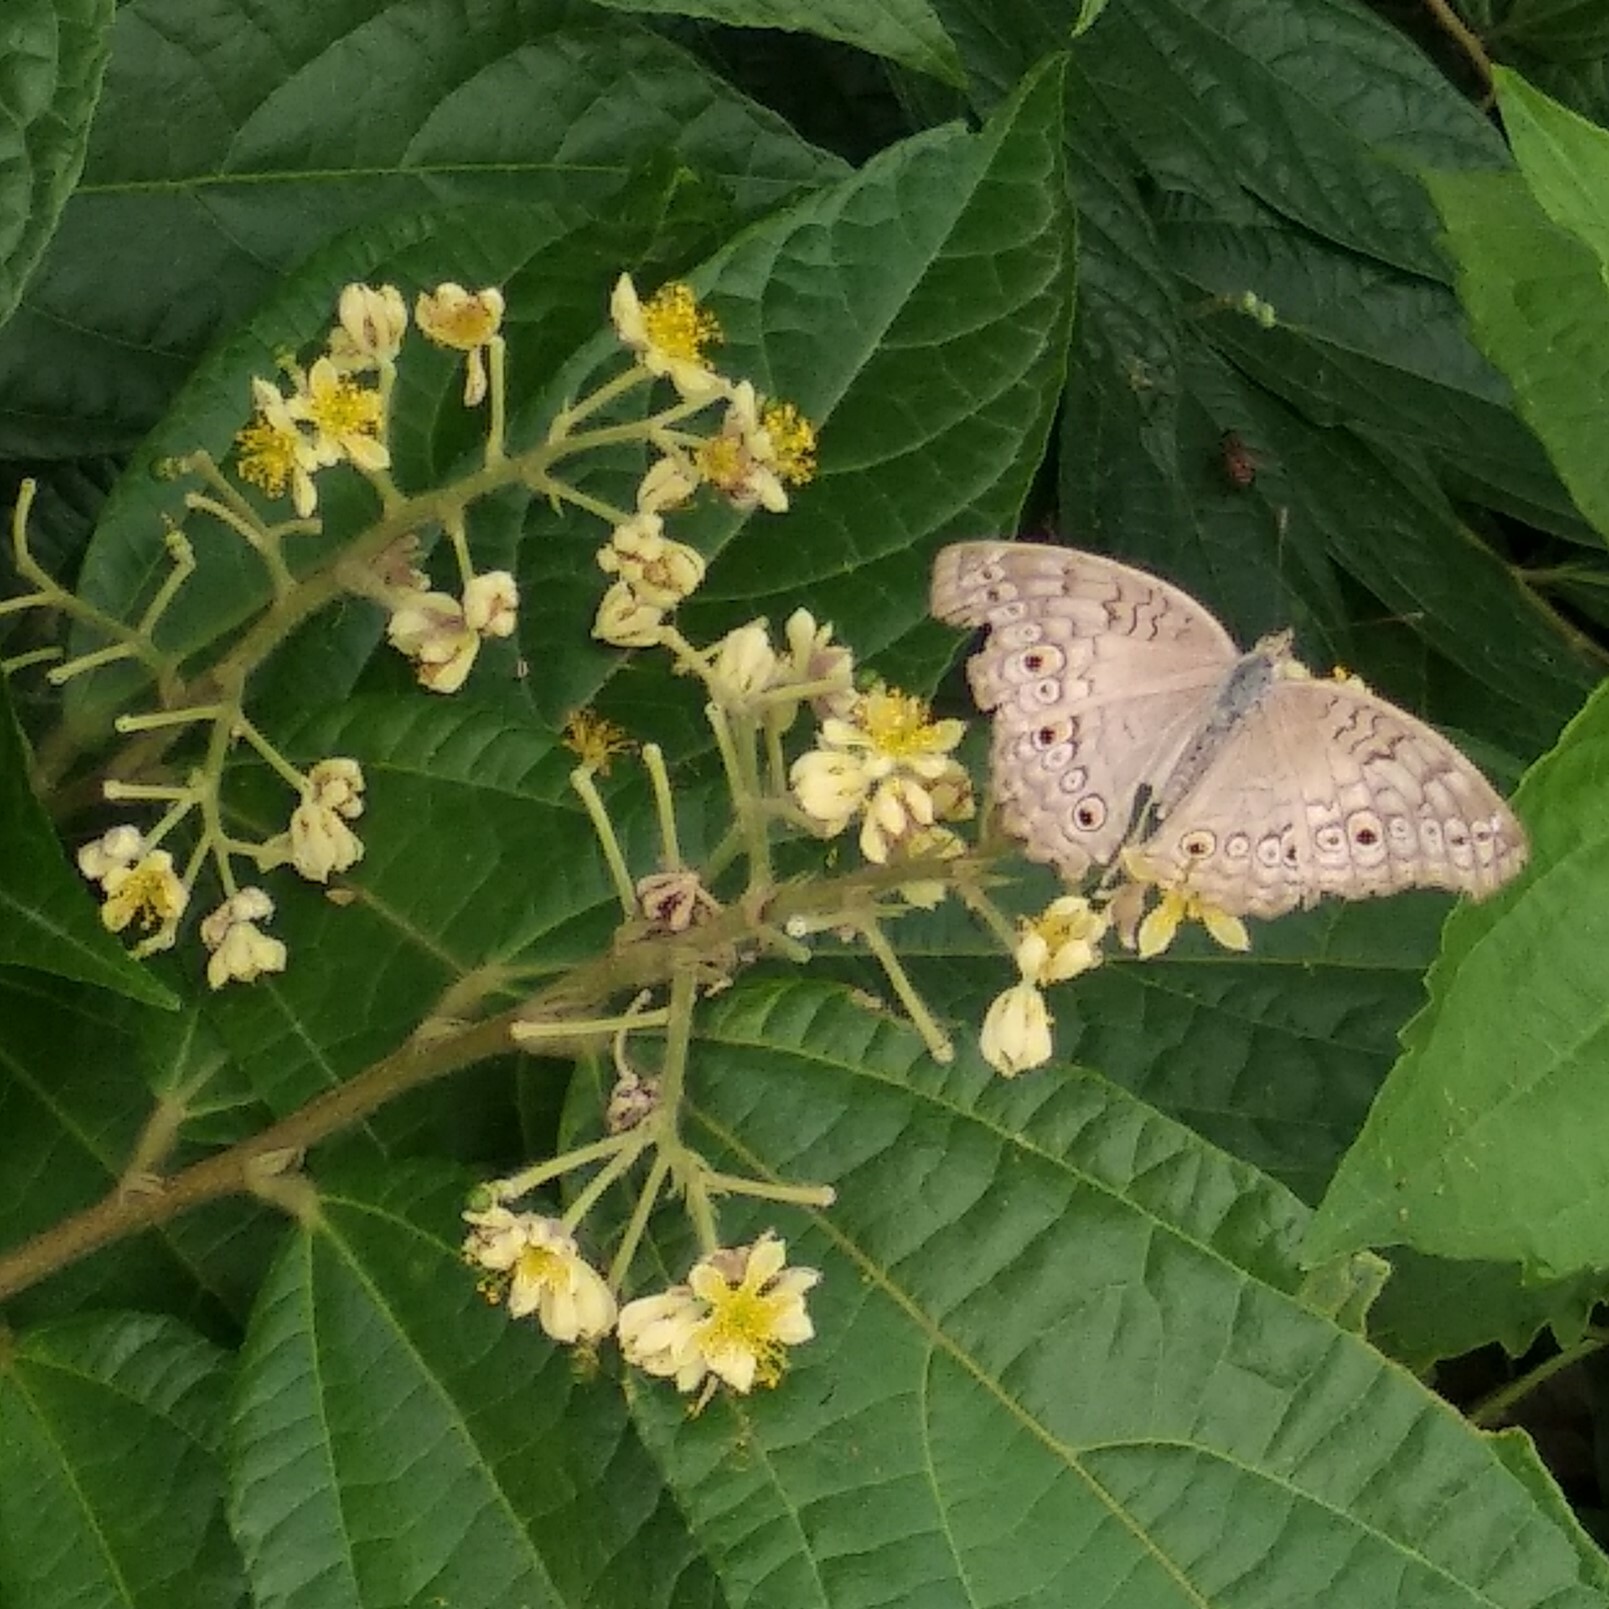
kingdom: Animalia
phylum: Arthropoda
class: Insecta
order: Lepidoptera
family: Nymphalidae
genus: Junonia
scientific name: Junonia atlites
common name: Grey pansy
